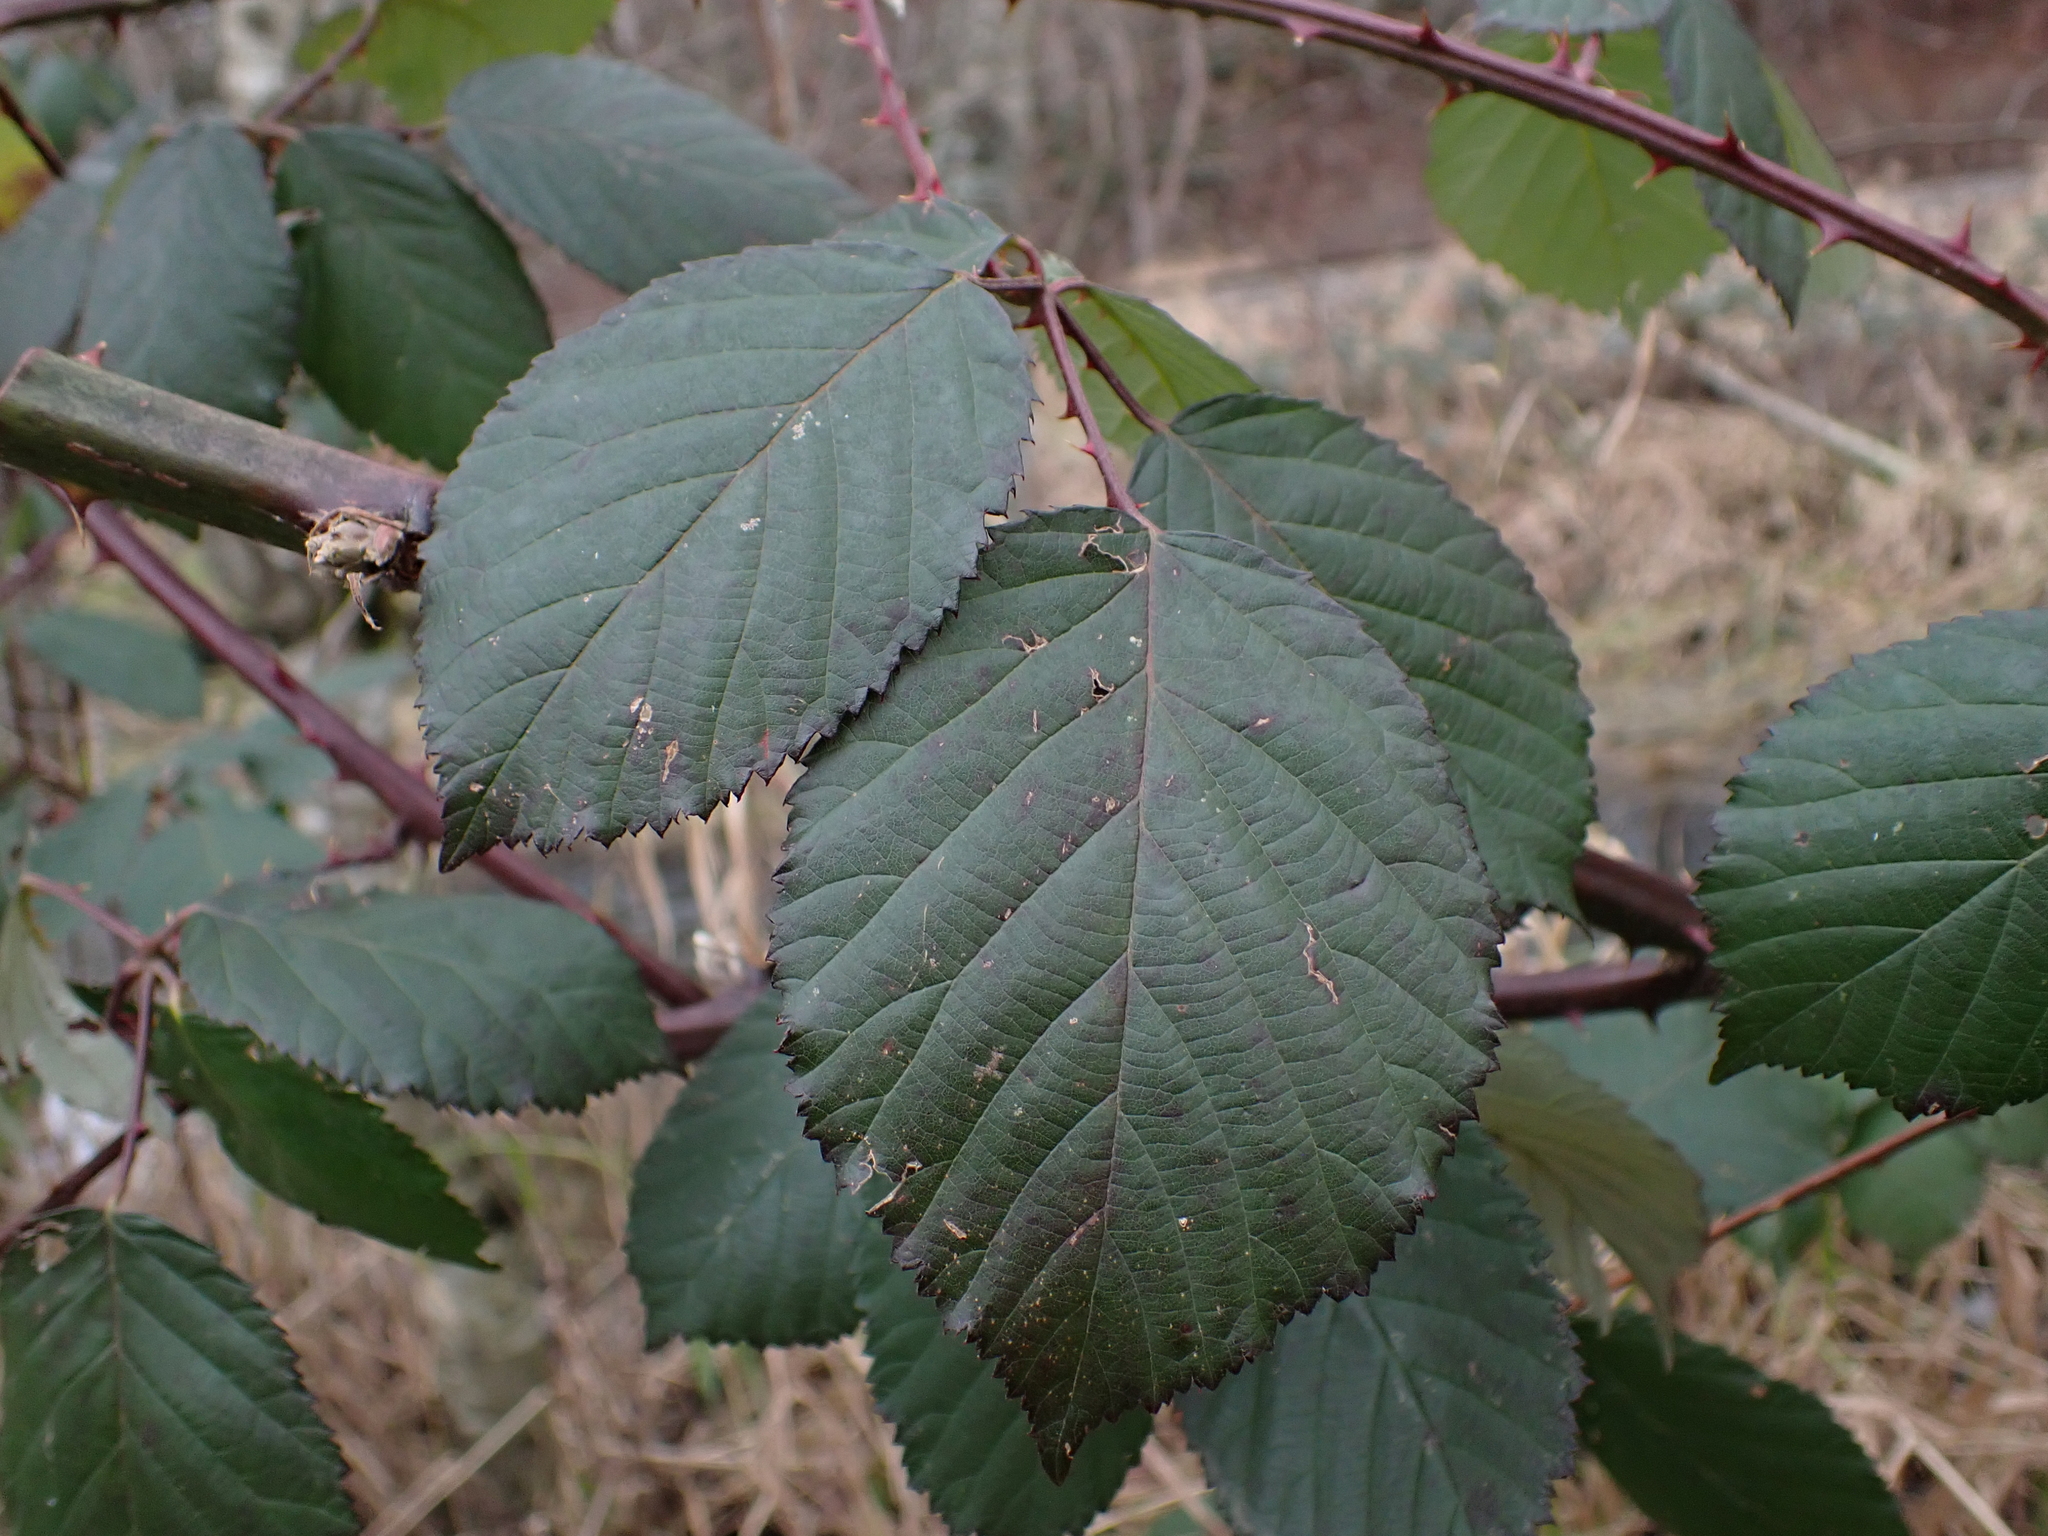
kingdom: Plantae
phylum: Tracheophyta
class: Magnoliopsida
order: Rosales
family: Rosaceae
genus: Rubus
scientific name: Rubus bifrons
